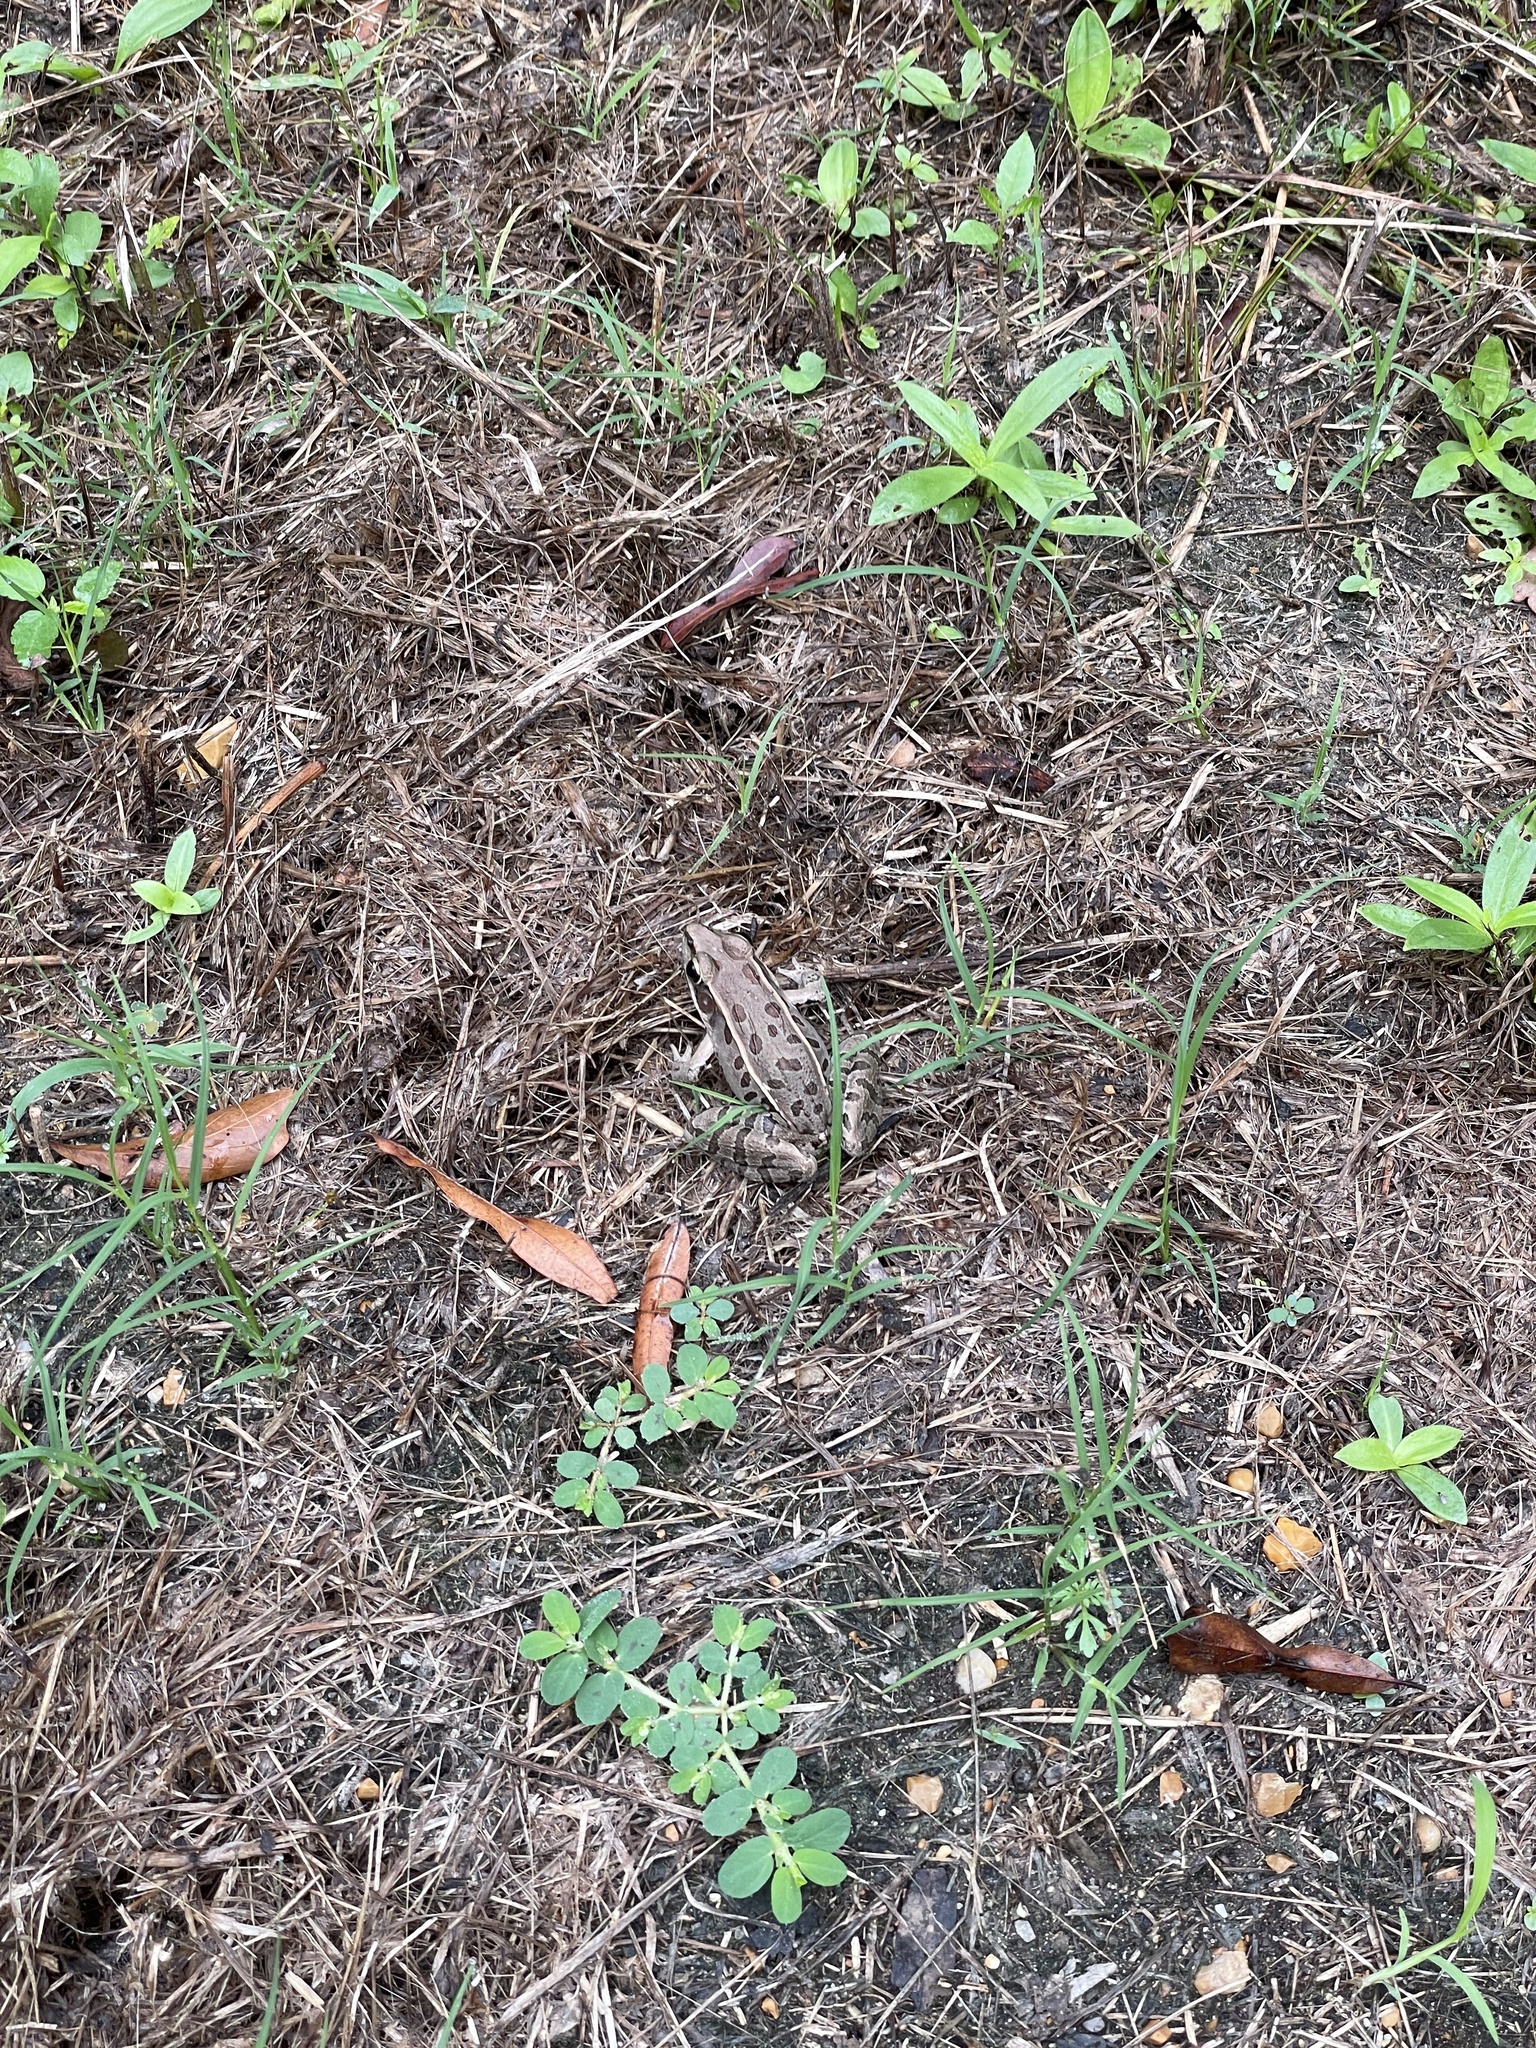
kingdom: Animalia
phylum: Chordata
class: Amphibia
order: Anura
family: Ranidae
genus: Lithobates
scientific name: Lithobates sphenocephalus
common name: Southern leopard frog
